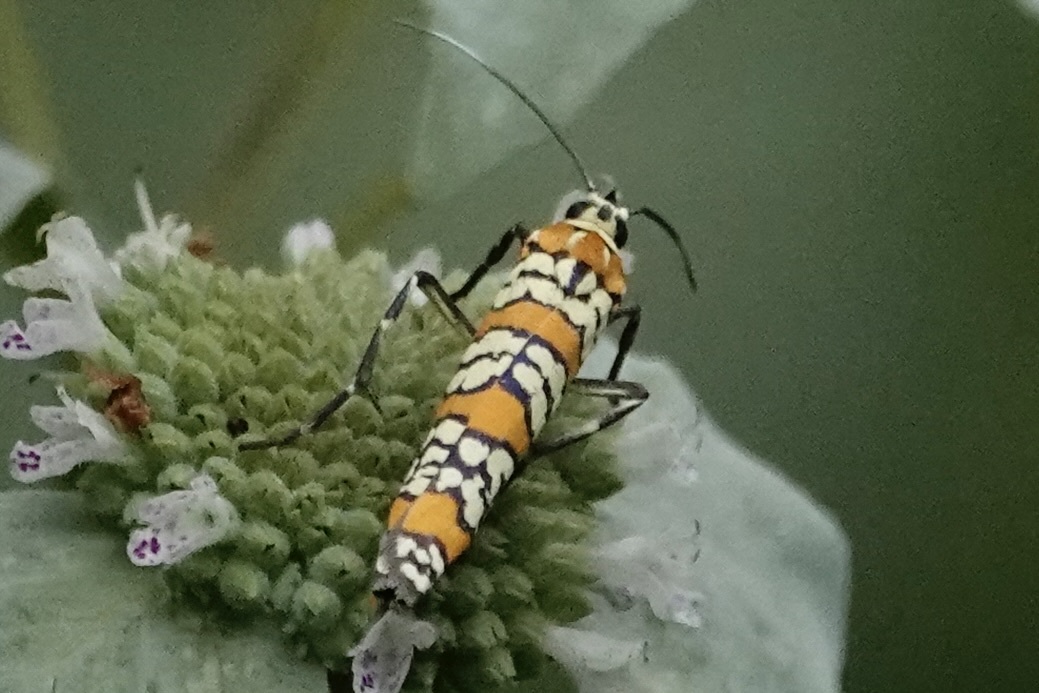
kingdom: Animalia
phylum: Arthropoda
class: Insecta
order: Lepidoptera
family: Attevidae
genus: Atteva
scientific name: Atteva punctella
